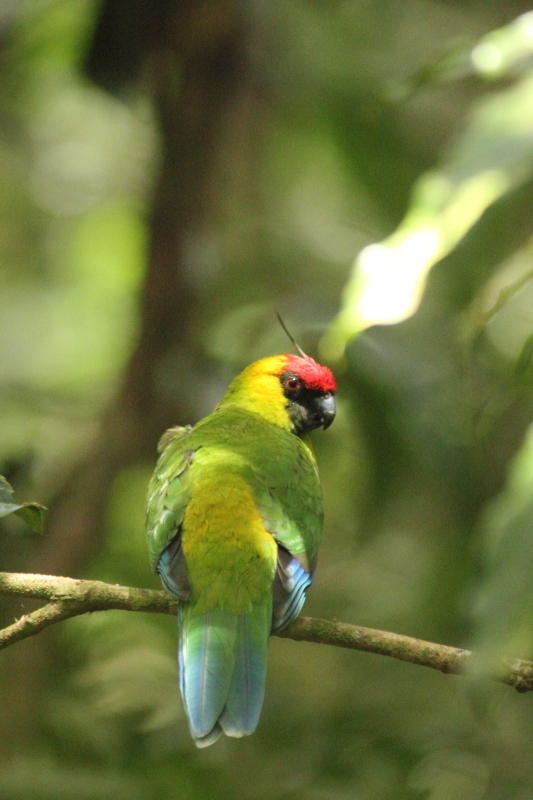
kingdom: Animalia
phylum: Chordata
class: Aves
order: Psittaciformes
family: Psittacidae
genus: Eunymphicus
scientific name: Eunymphicus cornutus
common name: Horned parakeet
